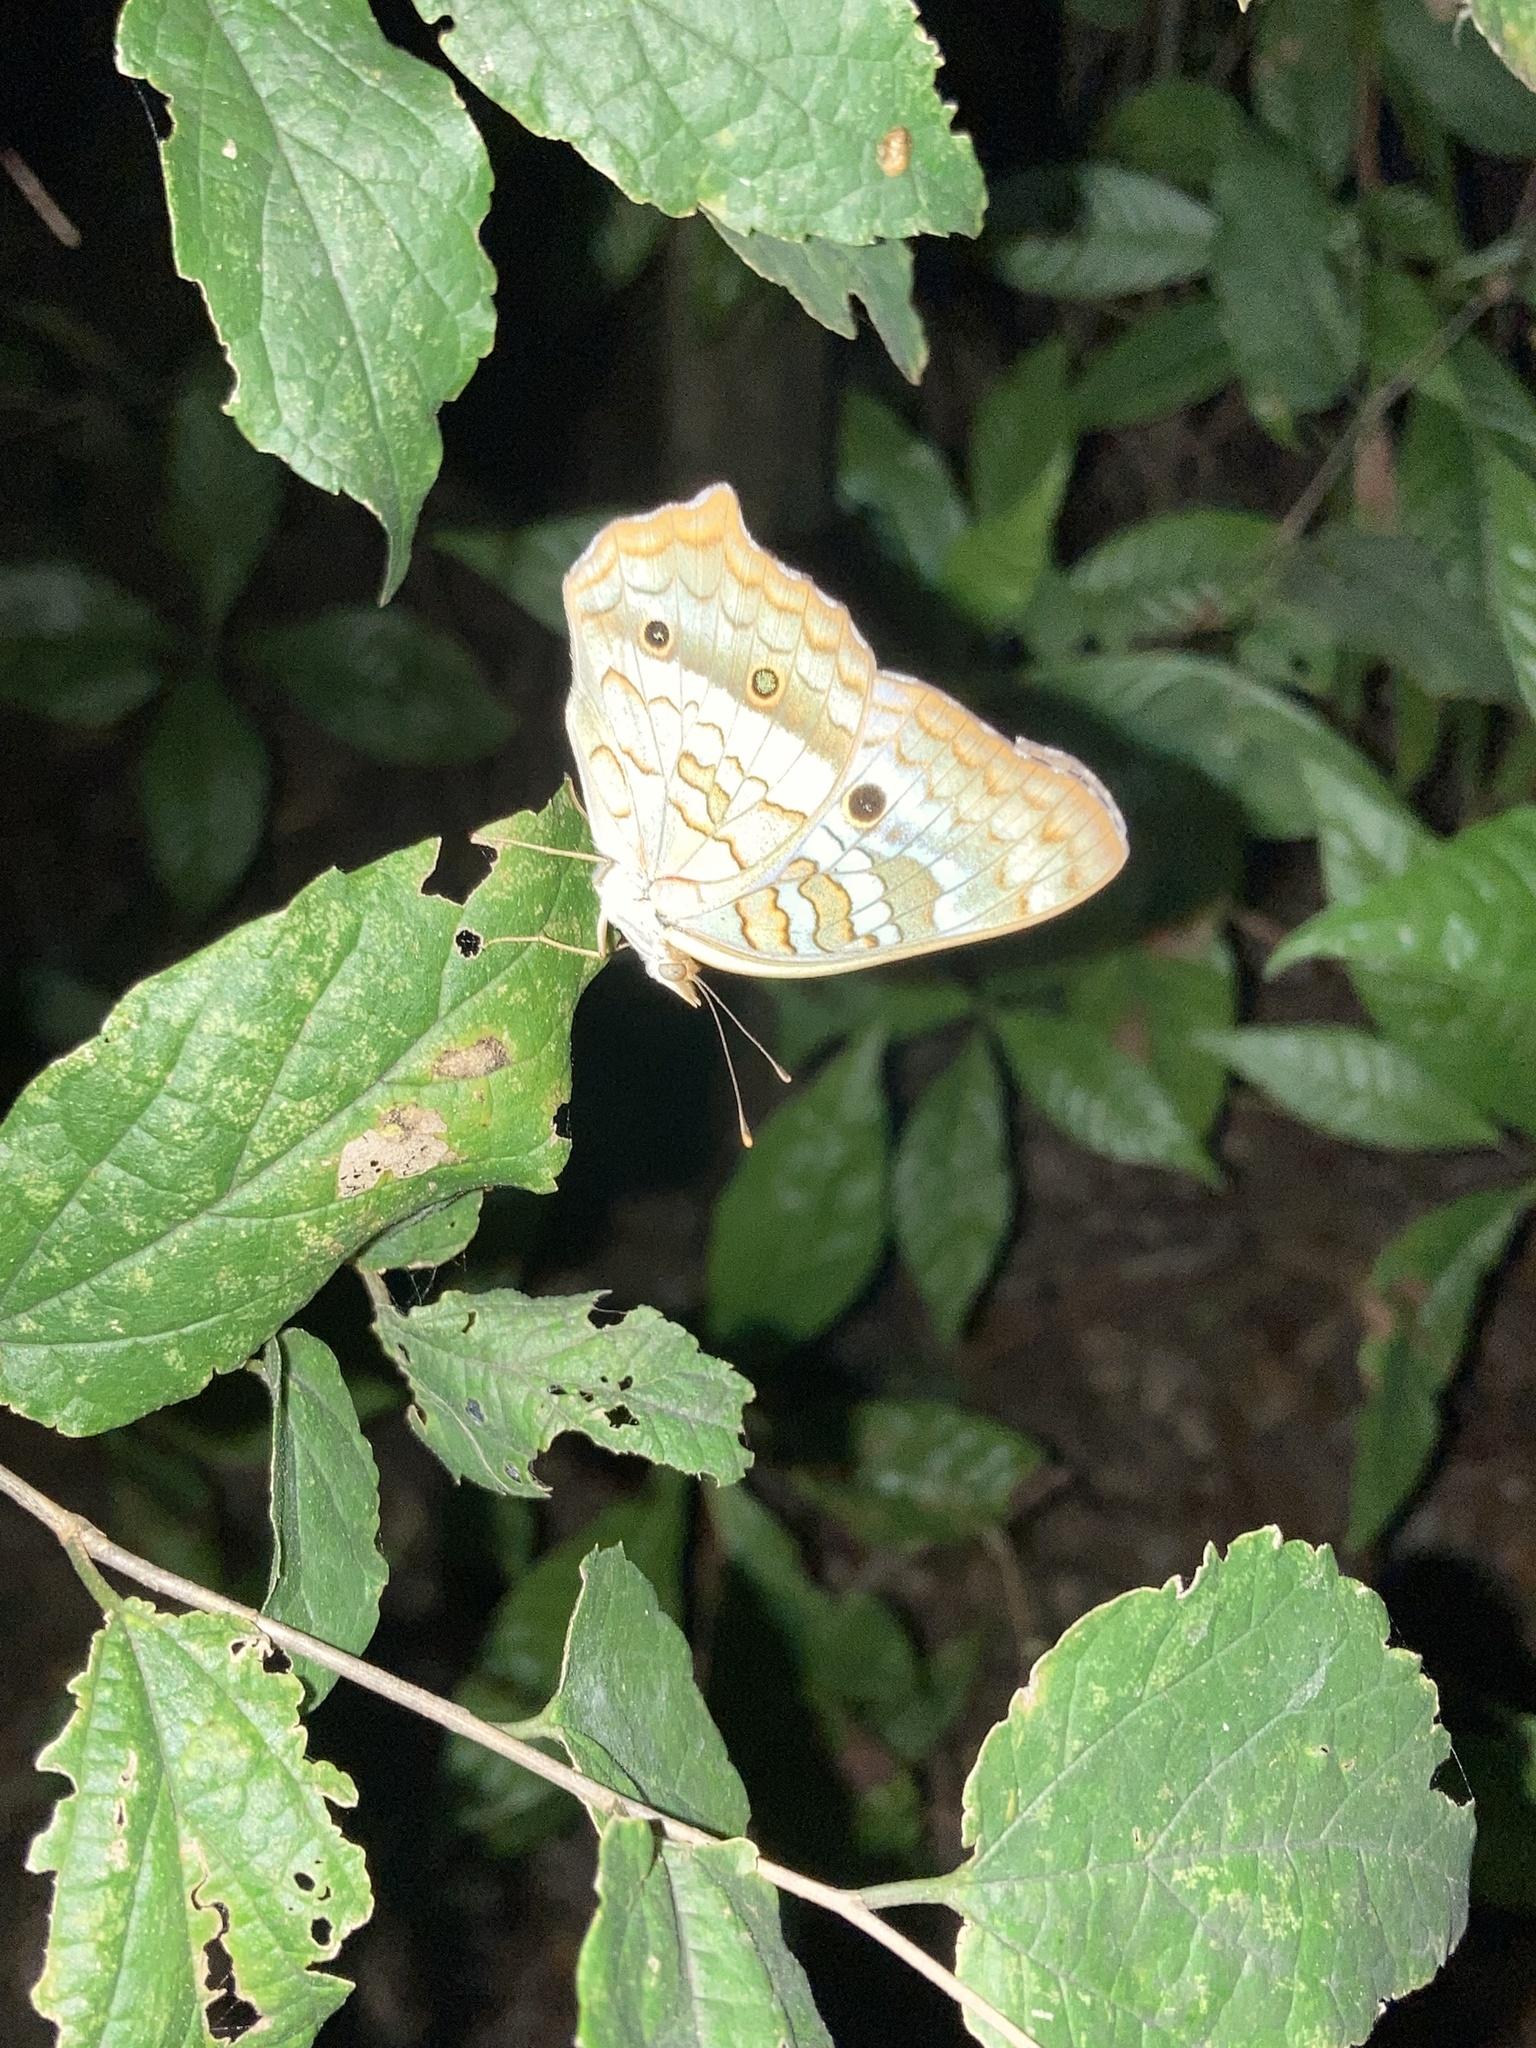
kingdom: Animalia
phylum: Arthropoda
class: Insecta
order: Lepidoptera
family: Nymphalidae
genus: Anartia
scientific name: Anartia jatrophae
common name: White peacock
